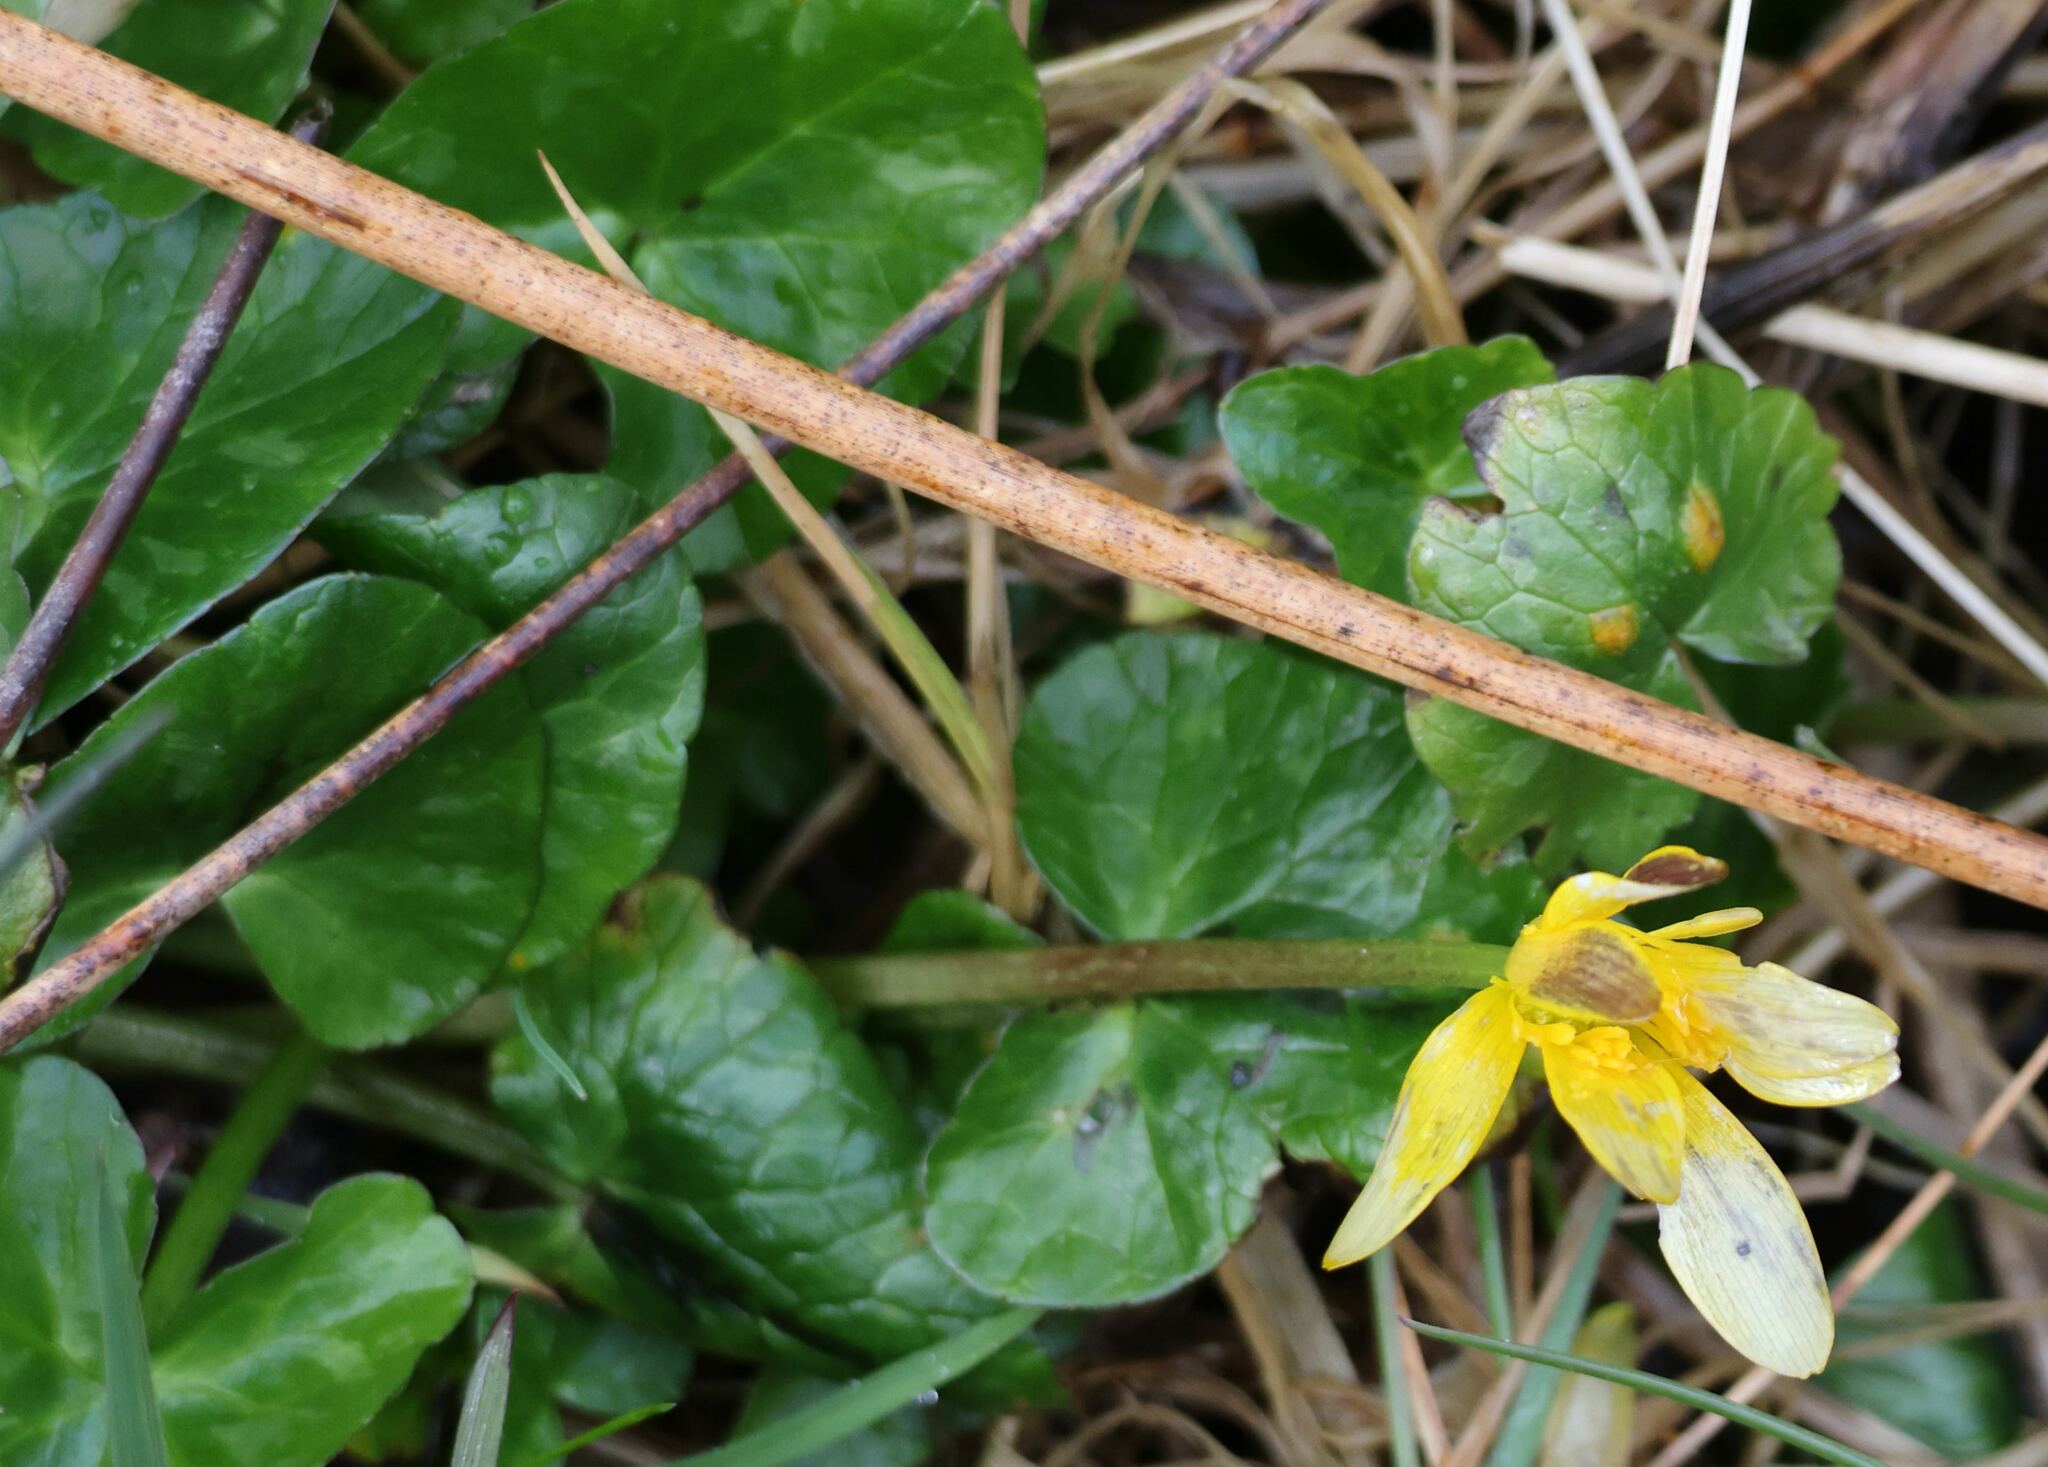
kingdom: Plantae
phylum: Tracheophyta
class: Magnoliopsida
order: Ranunculales
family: Ranunculaceae
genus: Ficaria
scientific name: Ficaria verna
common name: Lesser celandine
